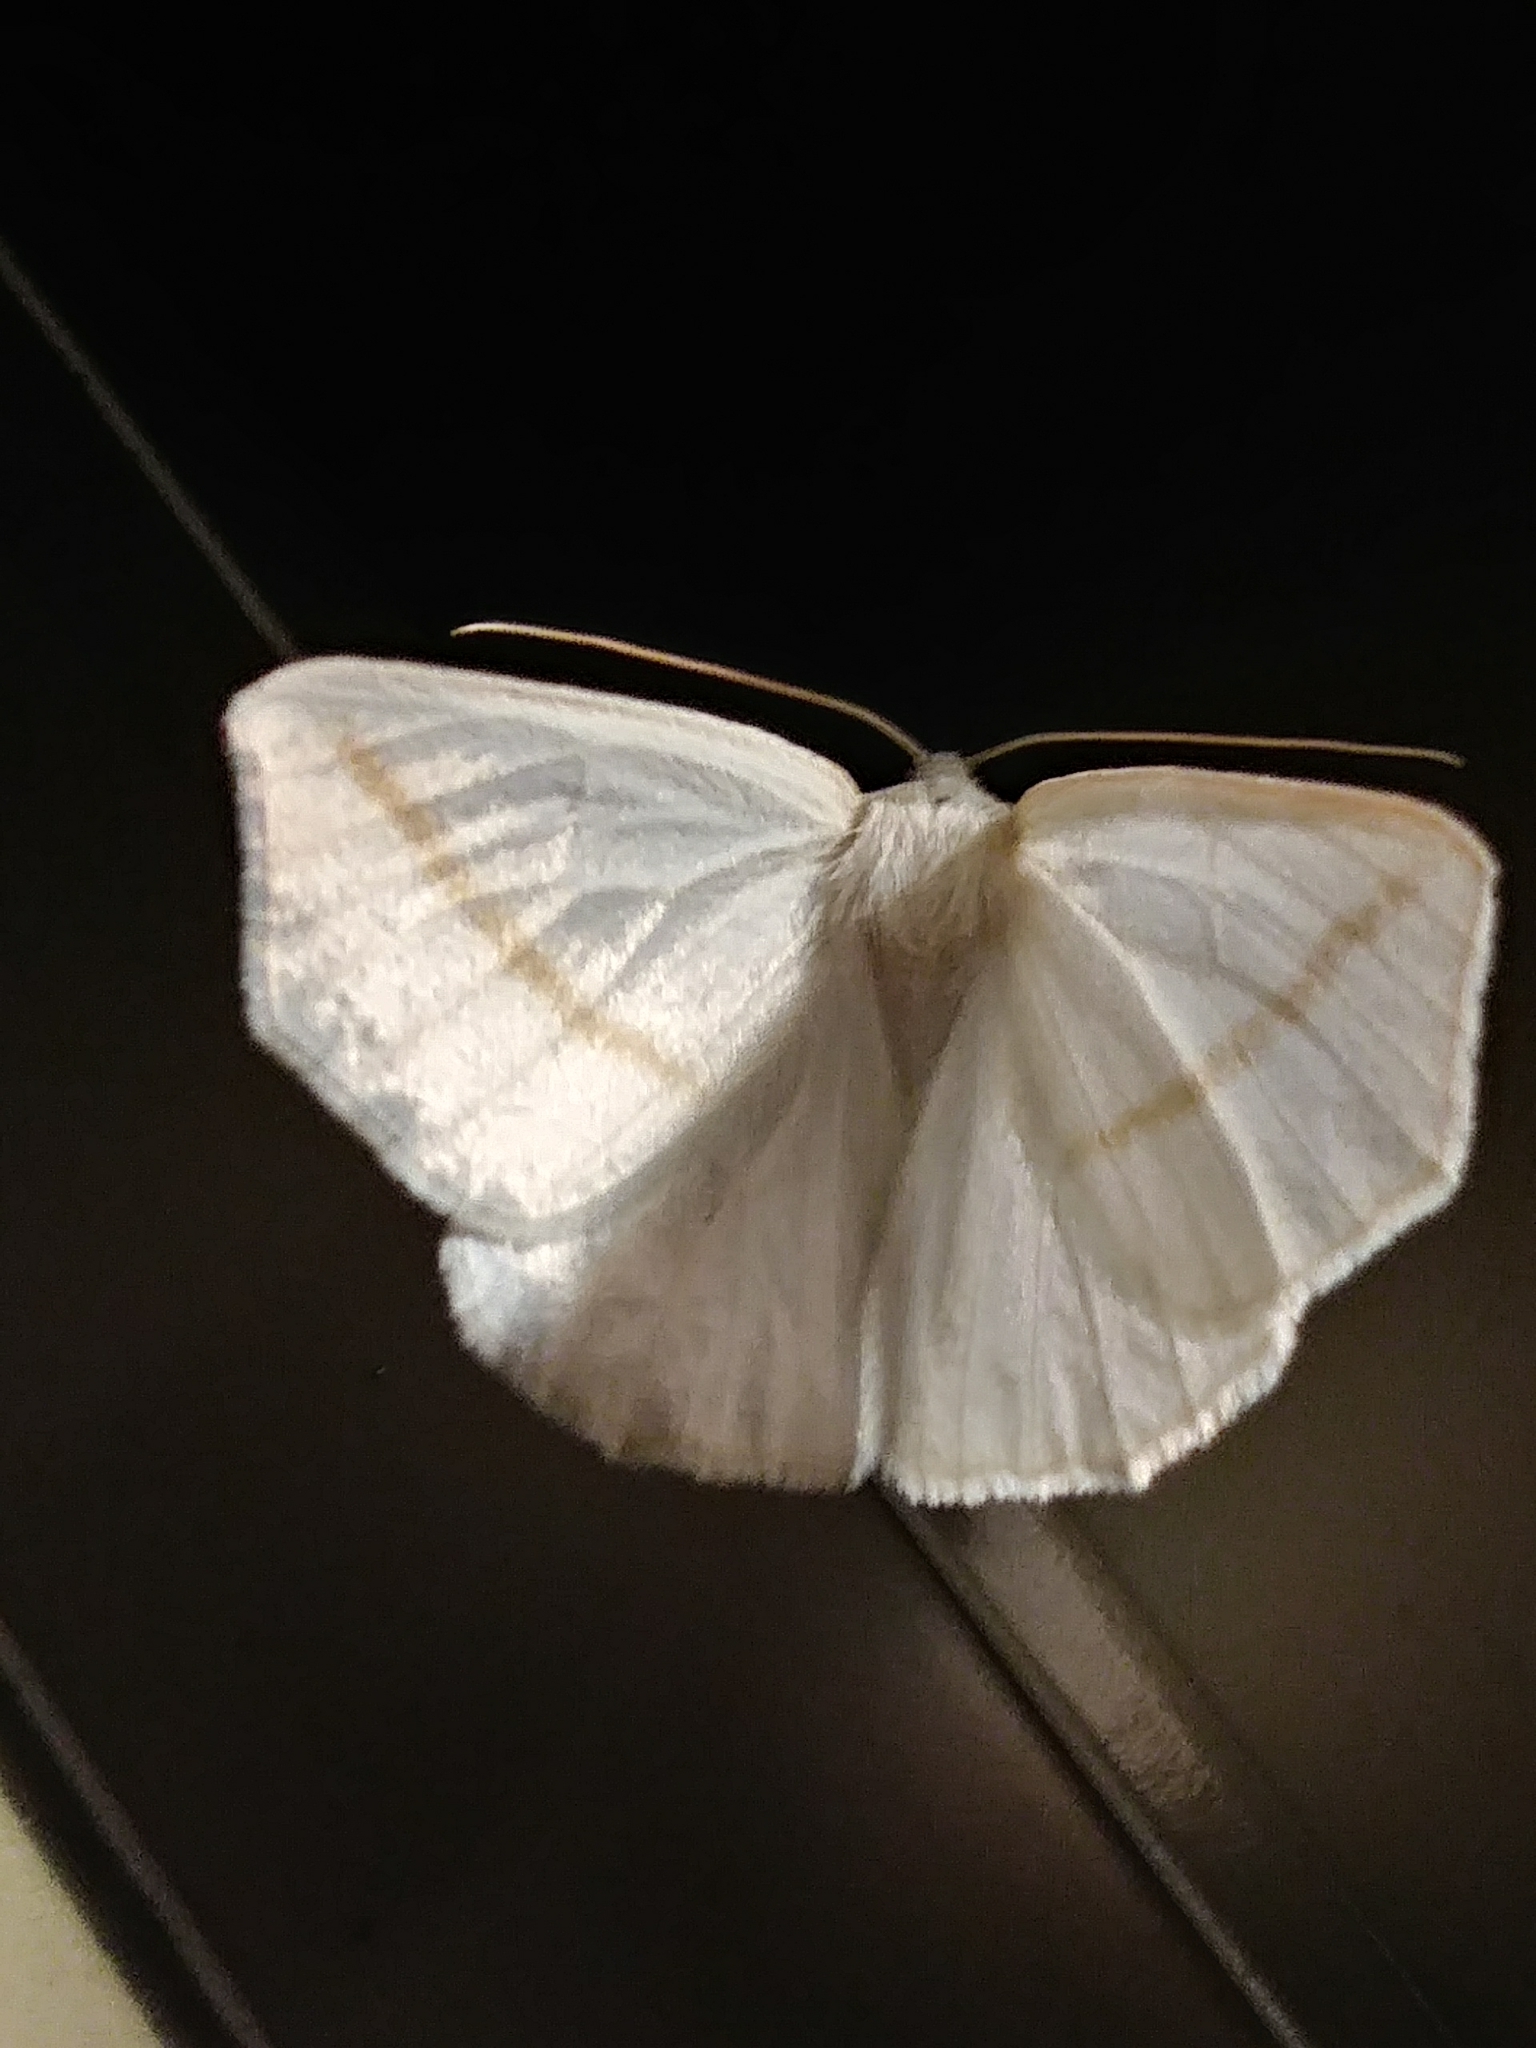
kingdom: Animalia
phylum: Arthropoda
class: Insecta
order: Lepidoptera
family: Geometridae
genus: Tetracis
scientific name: Tetracis cachexiata
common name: White slant-line
